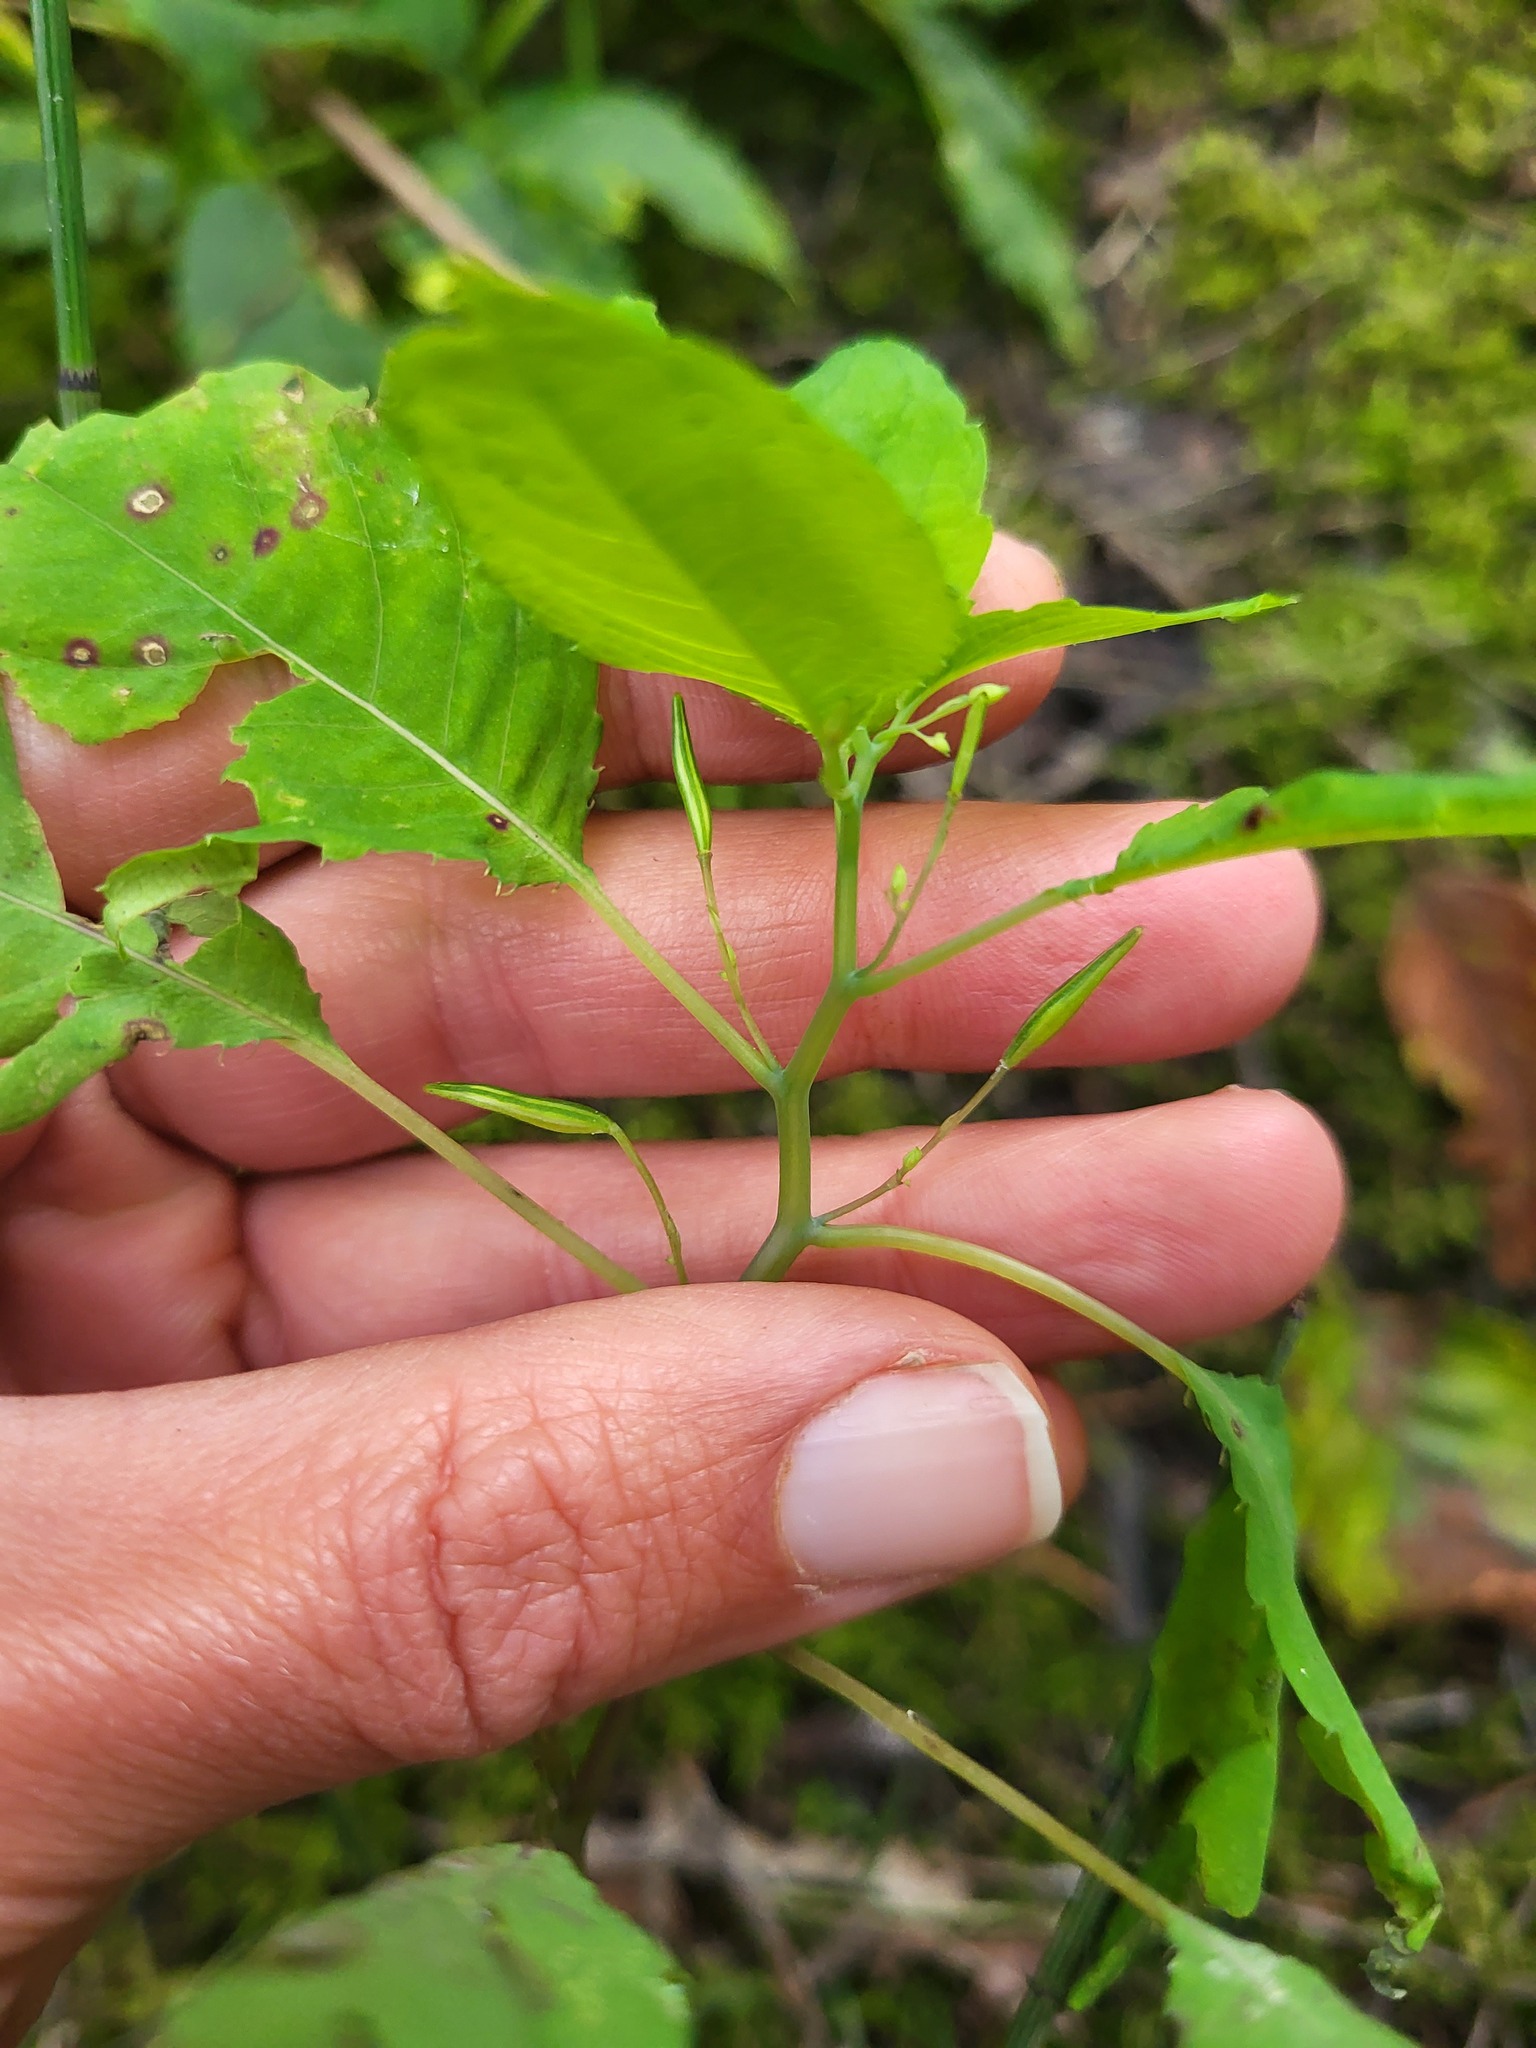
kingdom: Plantae
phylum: Tracheophyta
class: Magnoliopsida
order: Ericales
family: Balsaminaceae
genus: Impatiens
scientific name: Impatiens noli-tangere
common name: Touch-me-not balsam
